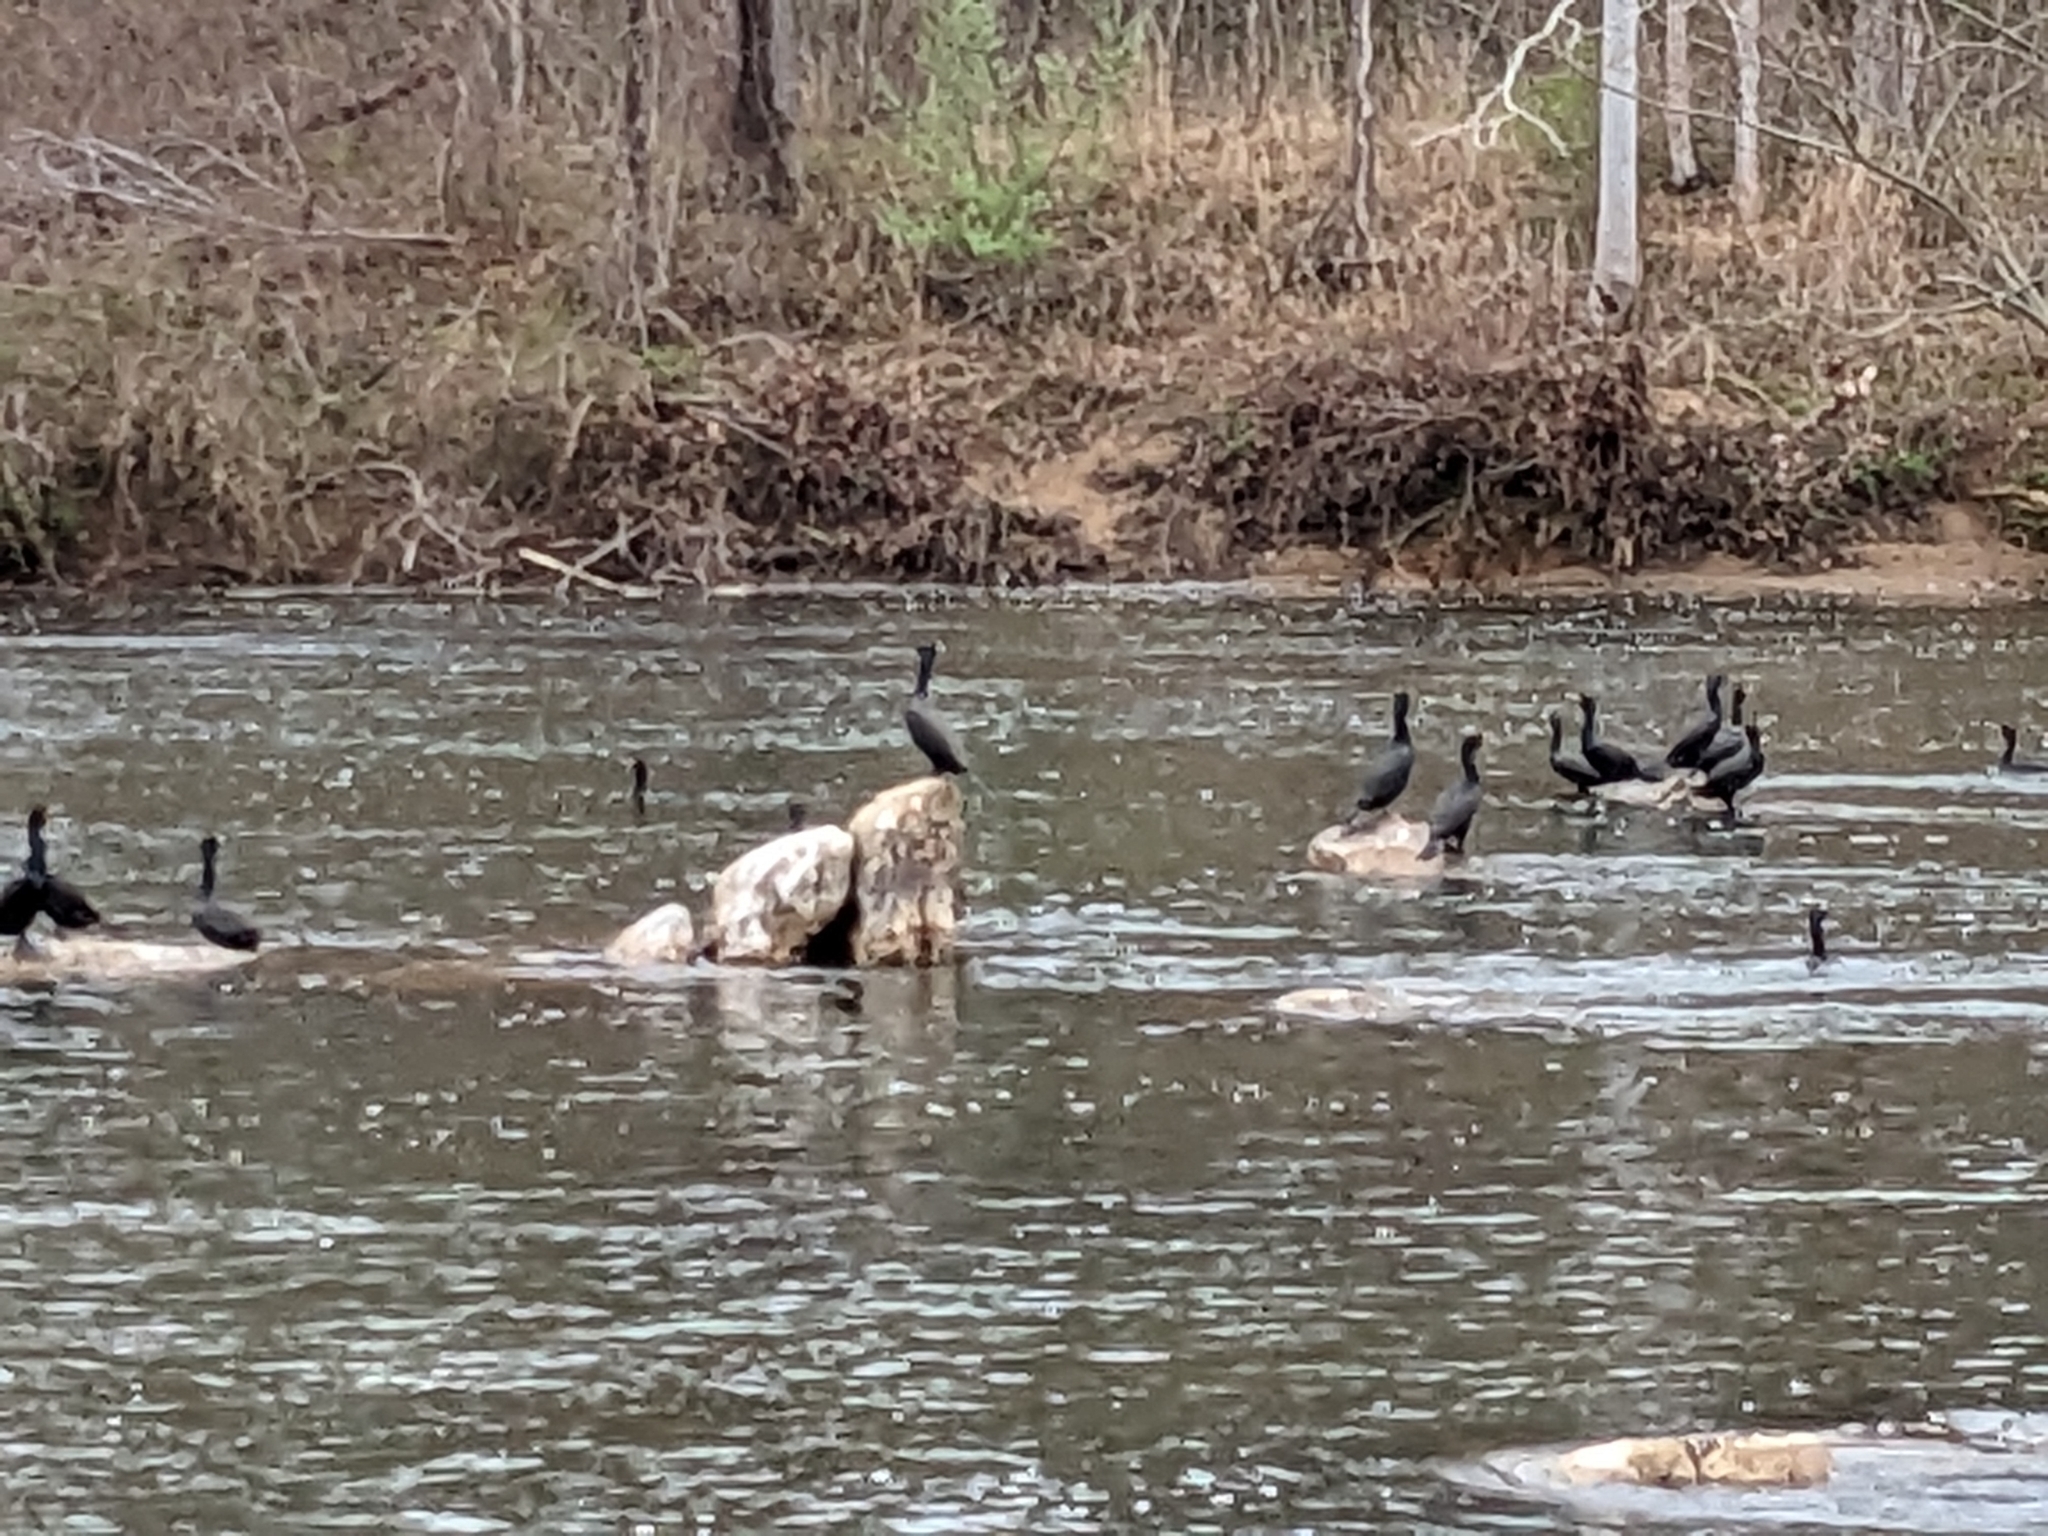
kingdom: Animalia
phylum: Chordata
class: Aves
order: Suliformes
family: Phalacrocoracidae
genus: Phalacrocorax
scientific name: Phalacrocorax auritus
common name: Double-crested cormorant
